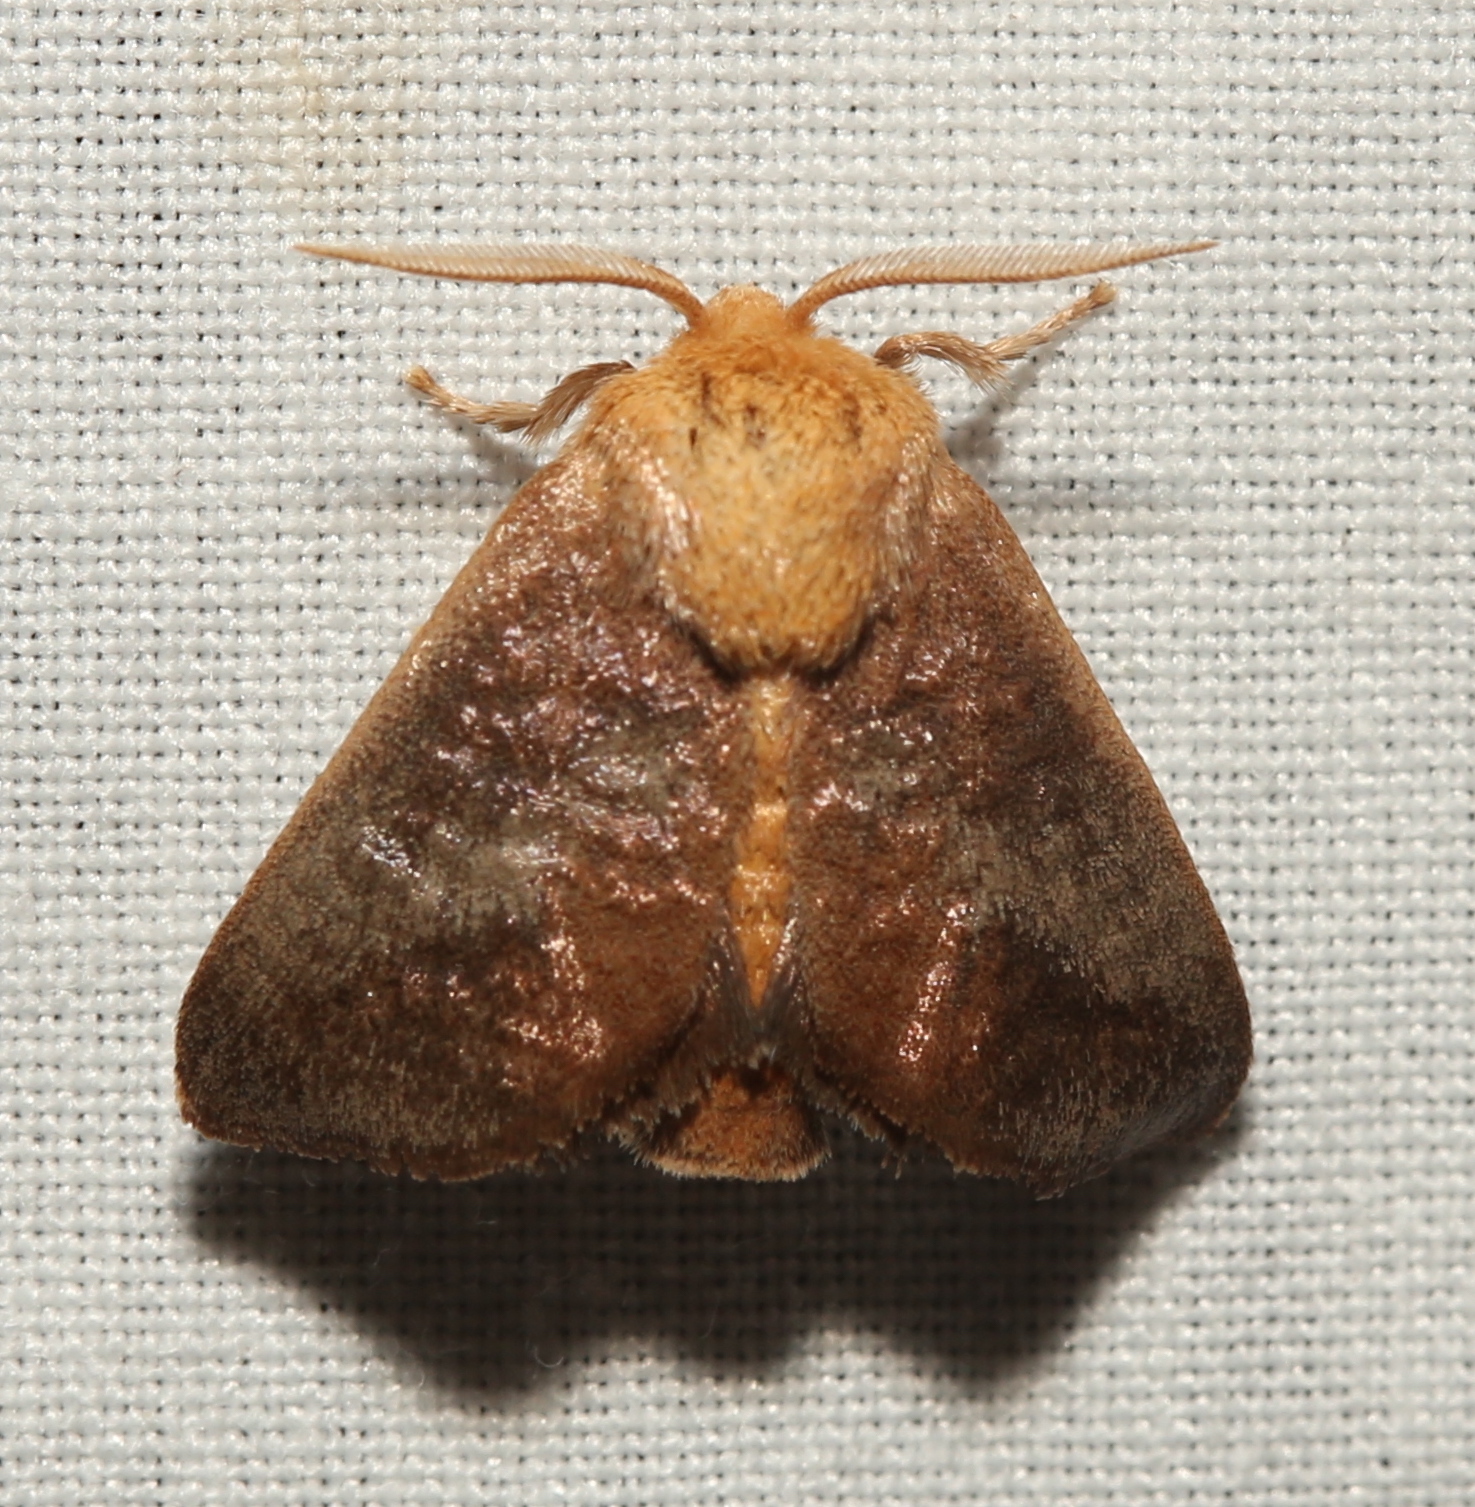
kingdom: Animalia
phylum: Arthropoda
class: Insecta
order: Lepidoptera
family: Limacodidae
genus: Isa
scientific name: Isa textula
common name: Crowned slug moth
